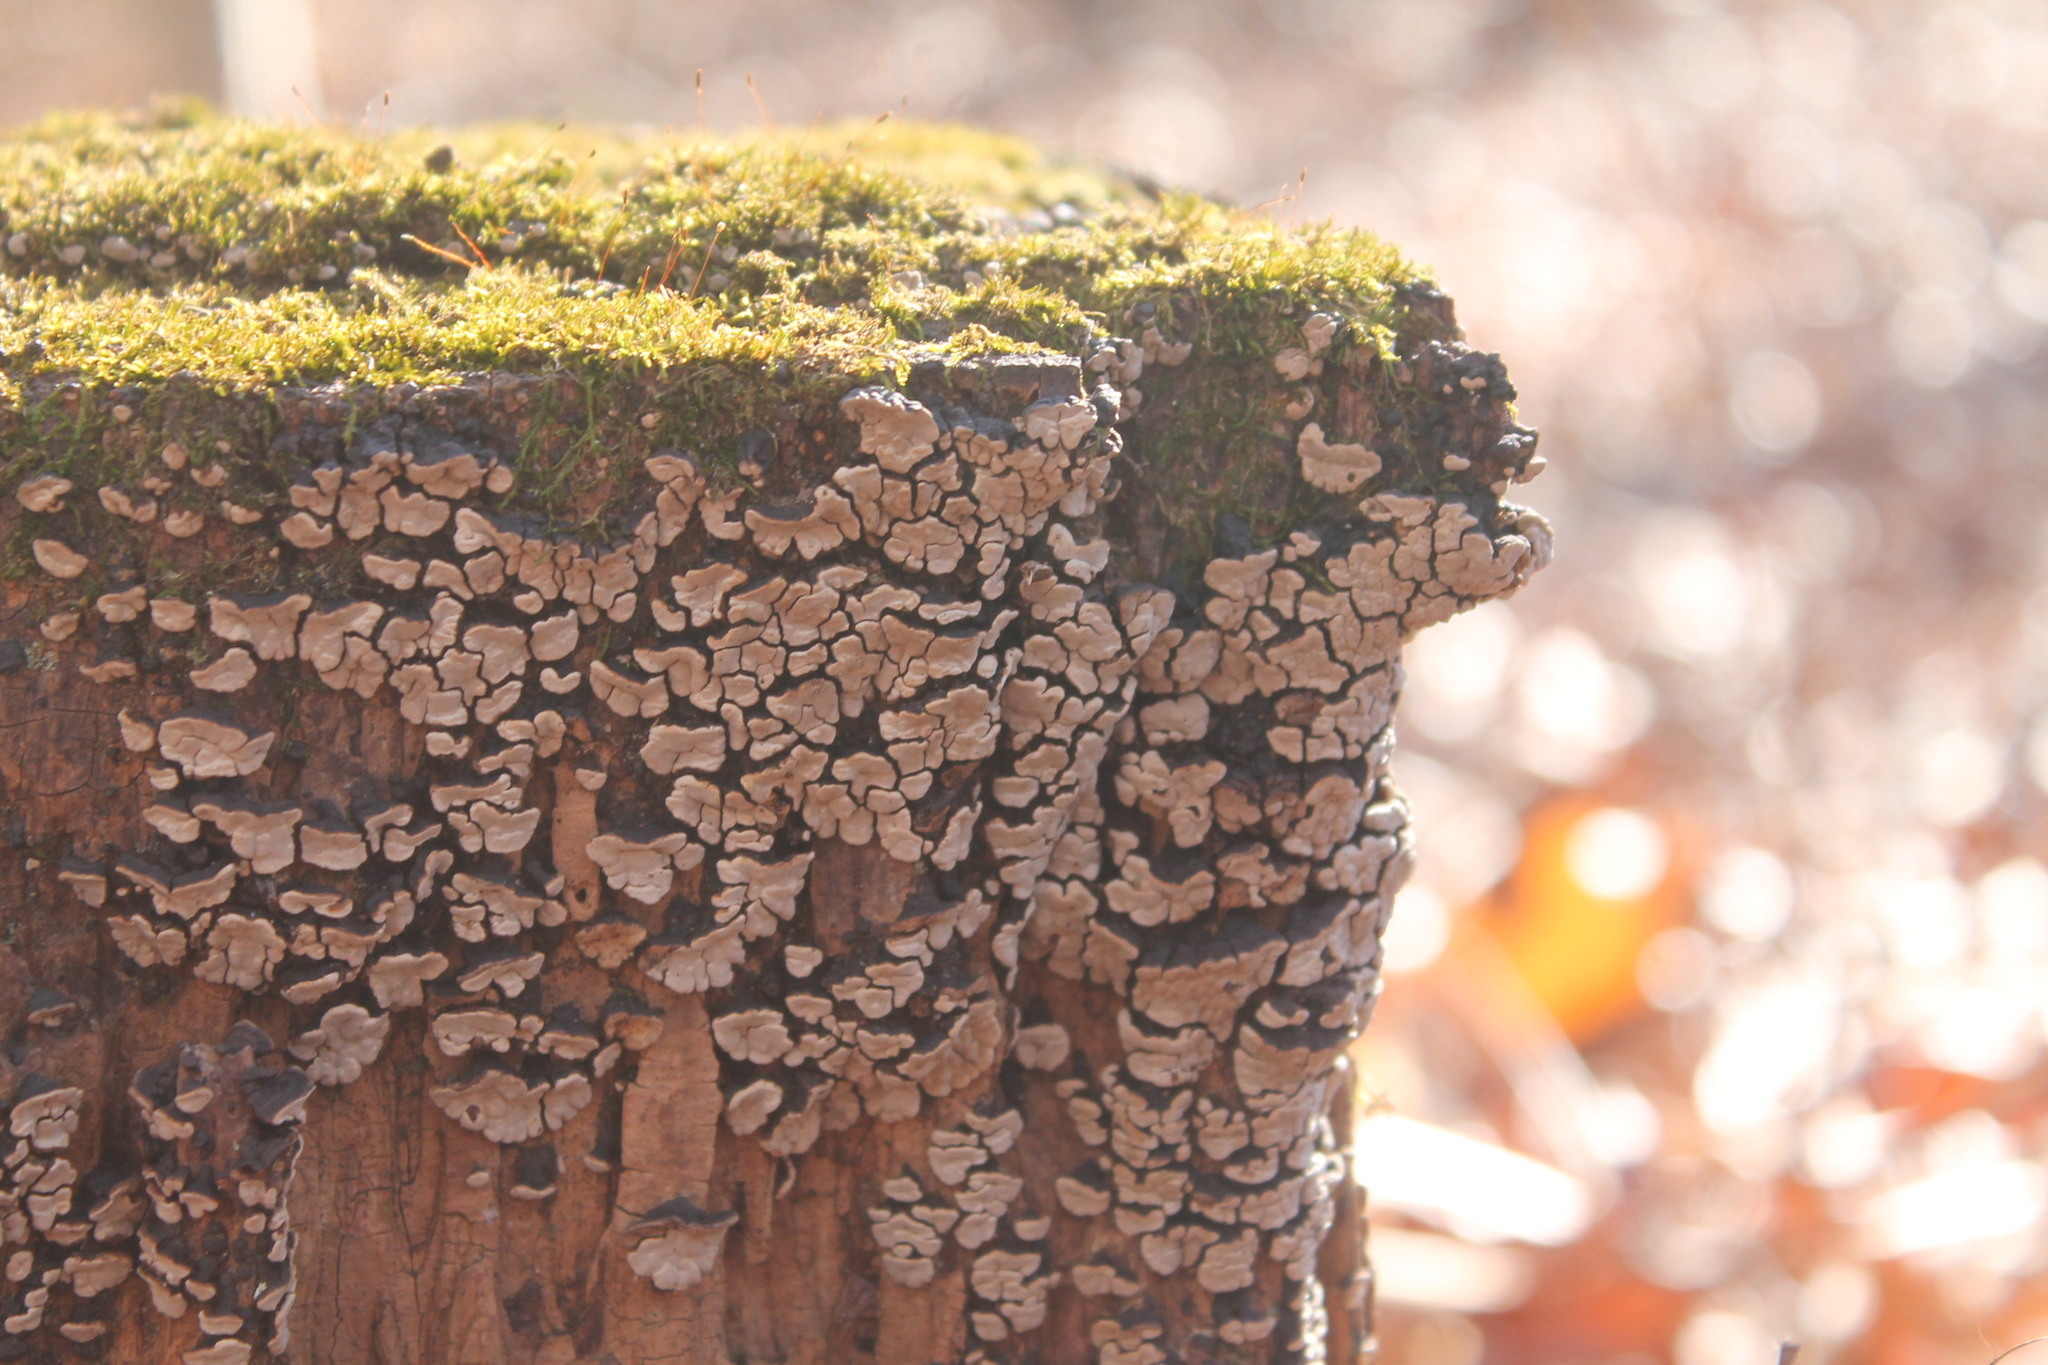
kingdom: Fungi
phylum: Basidiomycota
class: Agaricomycetes
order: Russulales
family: Stereaceae
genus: Xylobolus
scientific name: Xylobolus frustulatus
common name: Ceramic parchment
